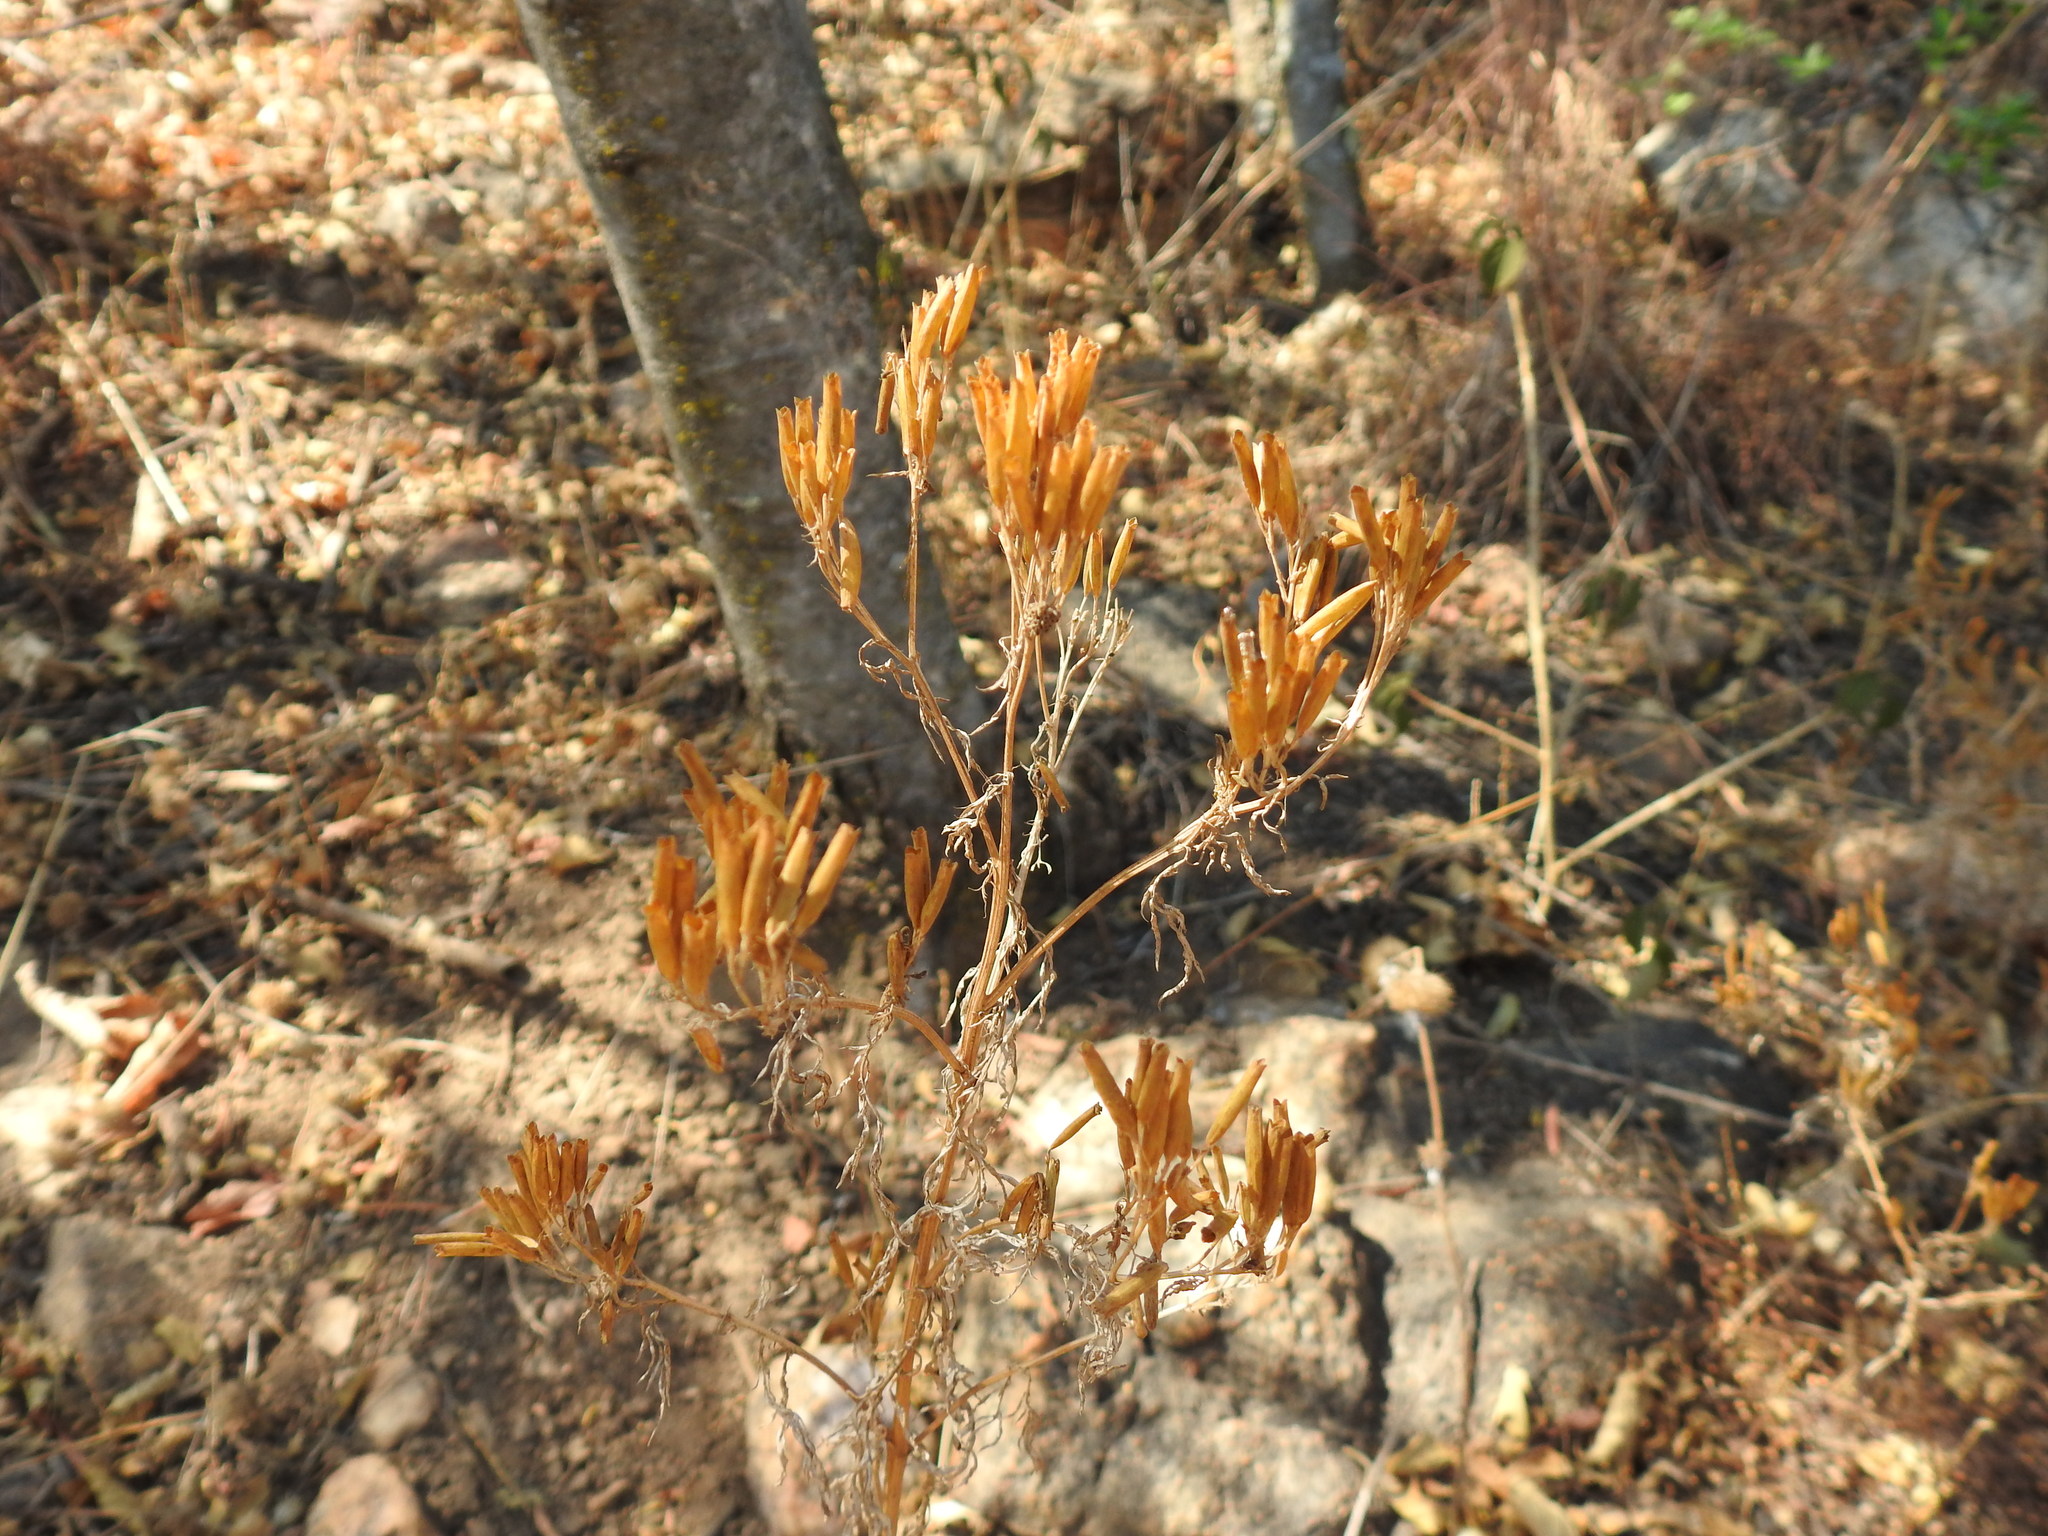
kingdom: Plantae
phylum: Tracheophyta
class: Magnoliopsida
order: Asterales
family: Asteraceae
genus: Tagetes
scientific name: Tagetes minuta
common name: Muster john henry
